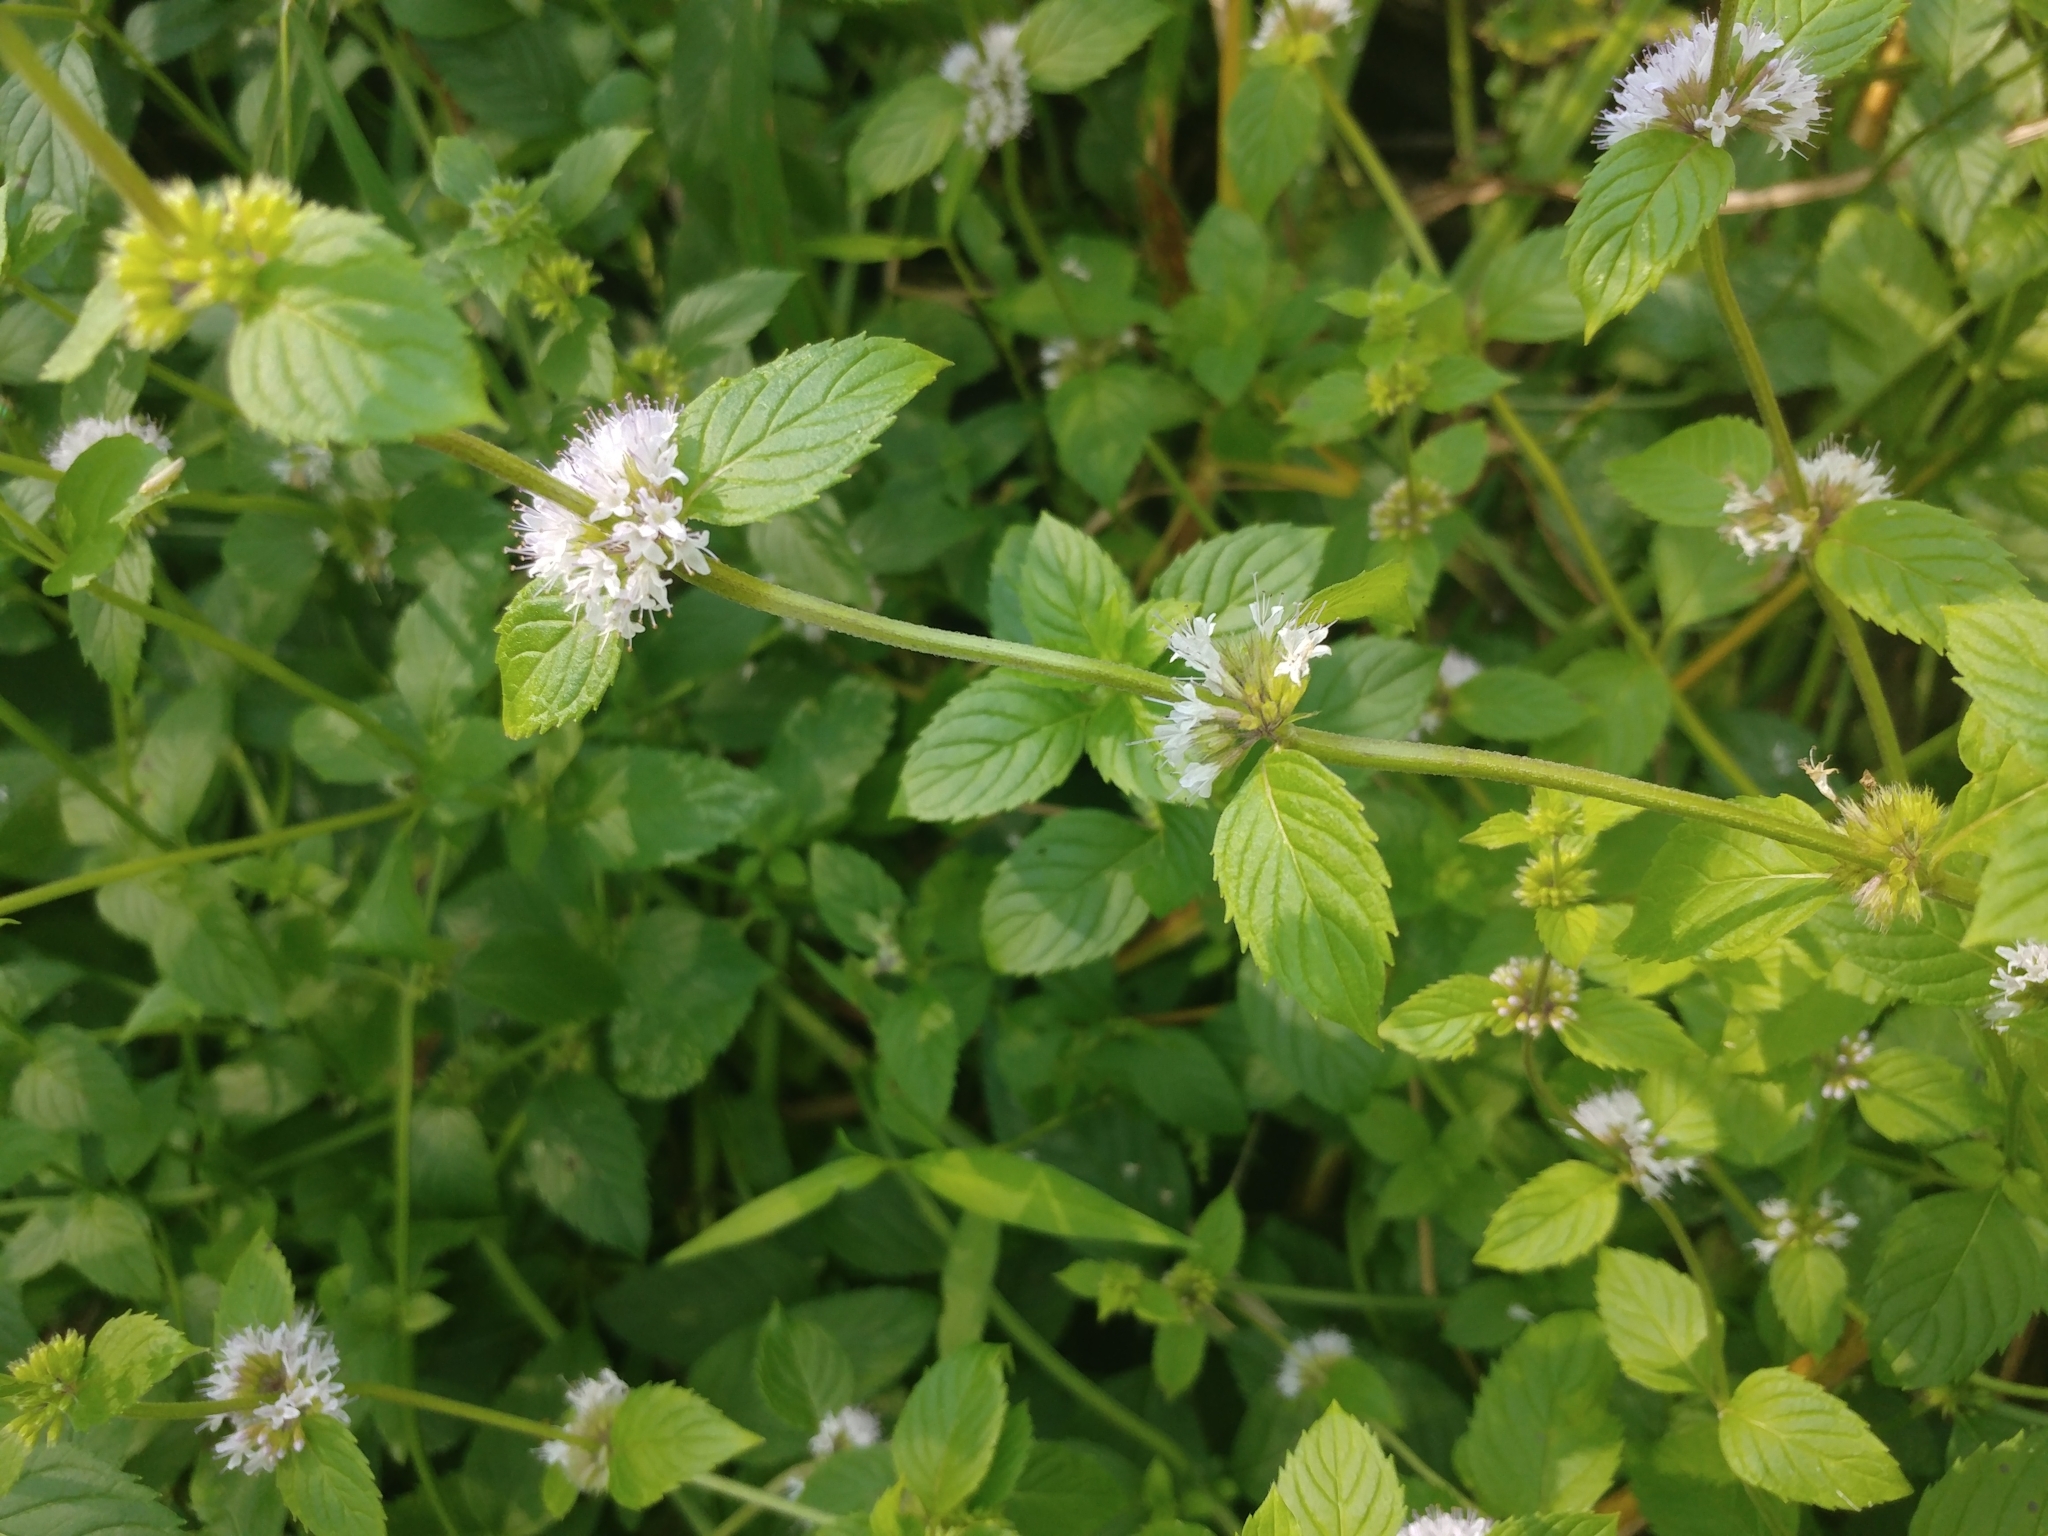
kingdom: Plantae
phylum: Tracheophyta
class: Magnoliopsida
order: Lamiales
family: Lamiaceae
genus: Mentha
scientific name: Mentha arvensis
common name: Corn mint
